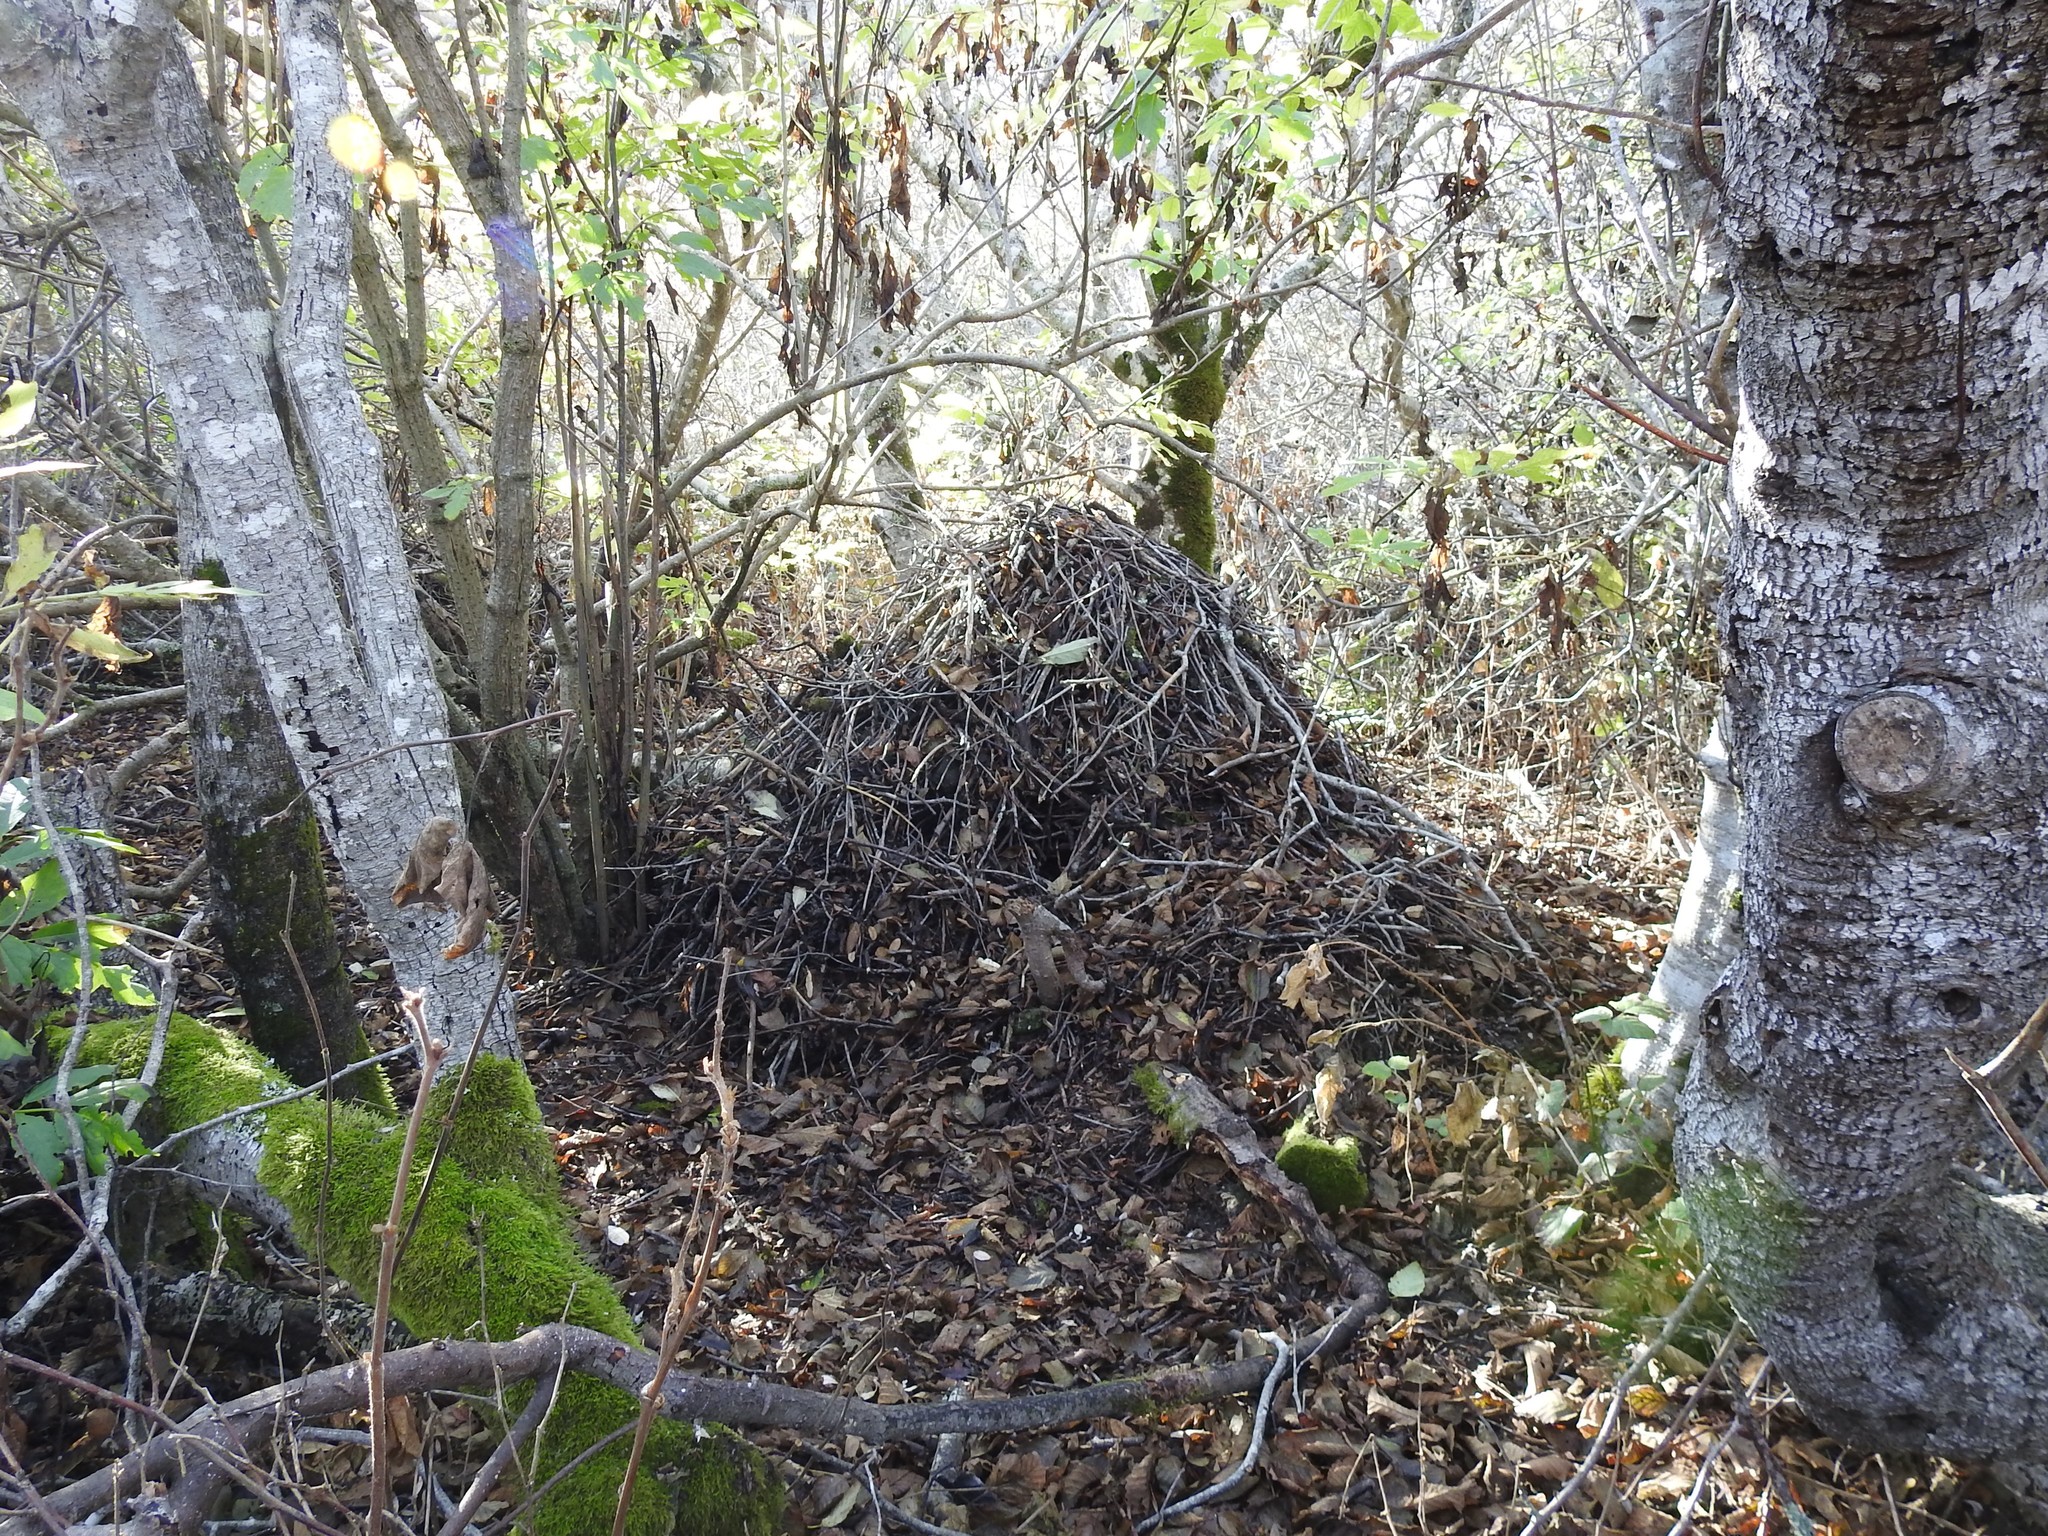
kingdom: Animalia
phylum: Chordata
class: Mammalia
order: Rodentia
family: Cricetidae
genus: Neotoma
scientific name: Neotoma fuscipes
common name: Dusky-footed woodrat
